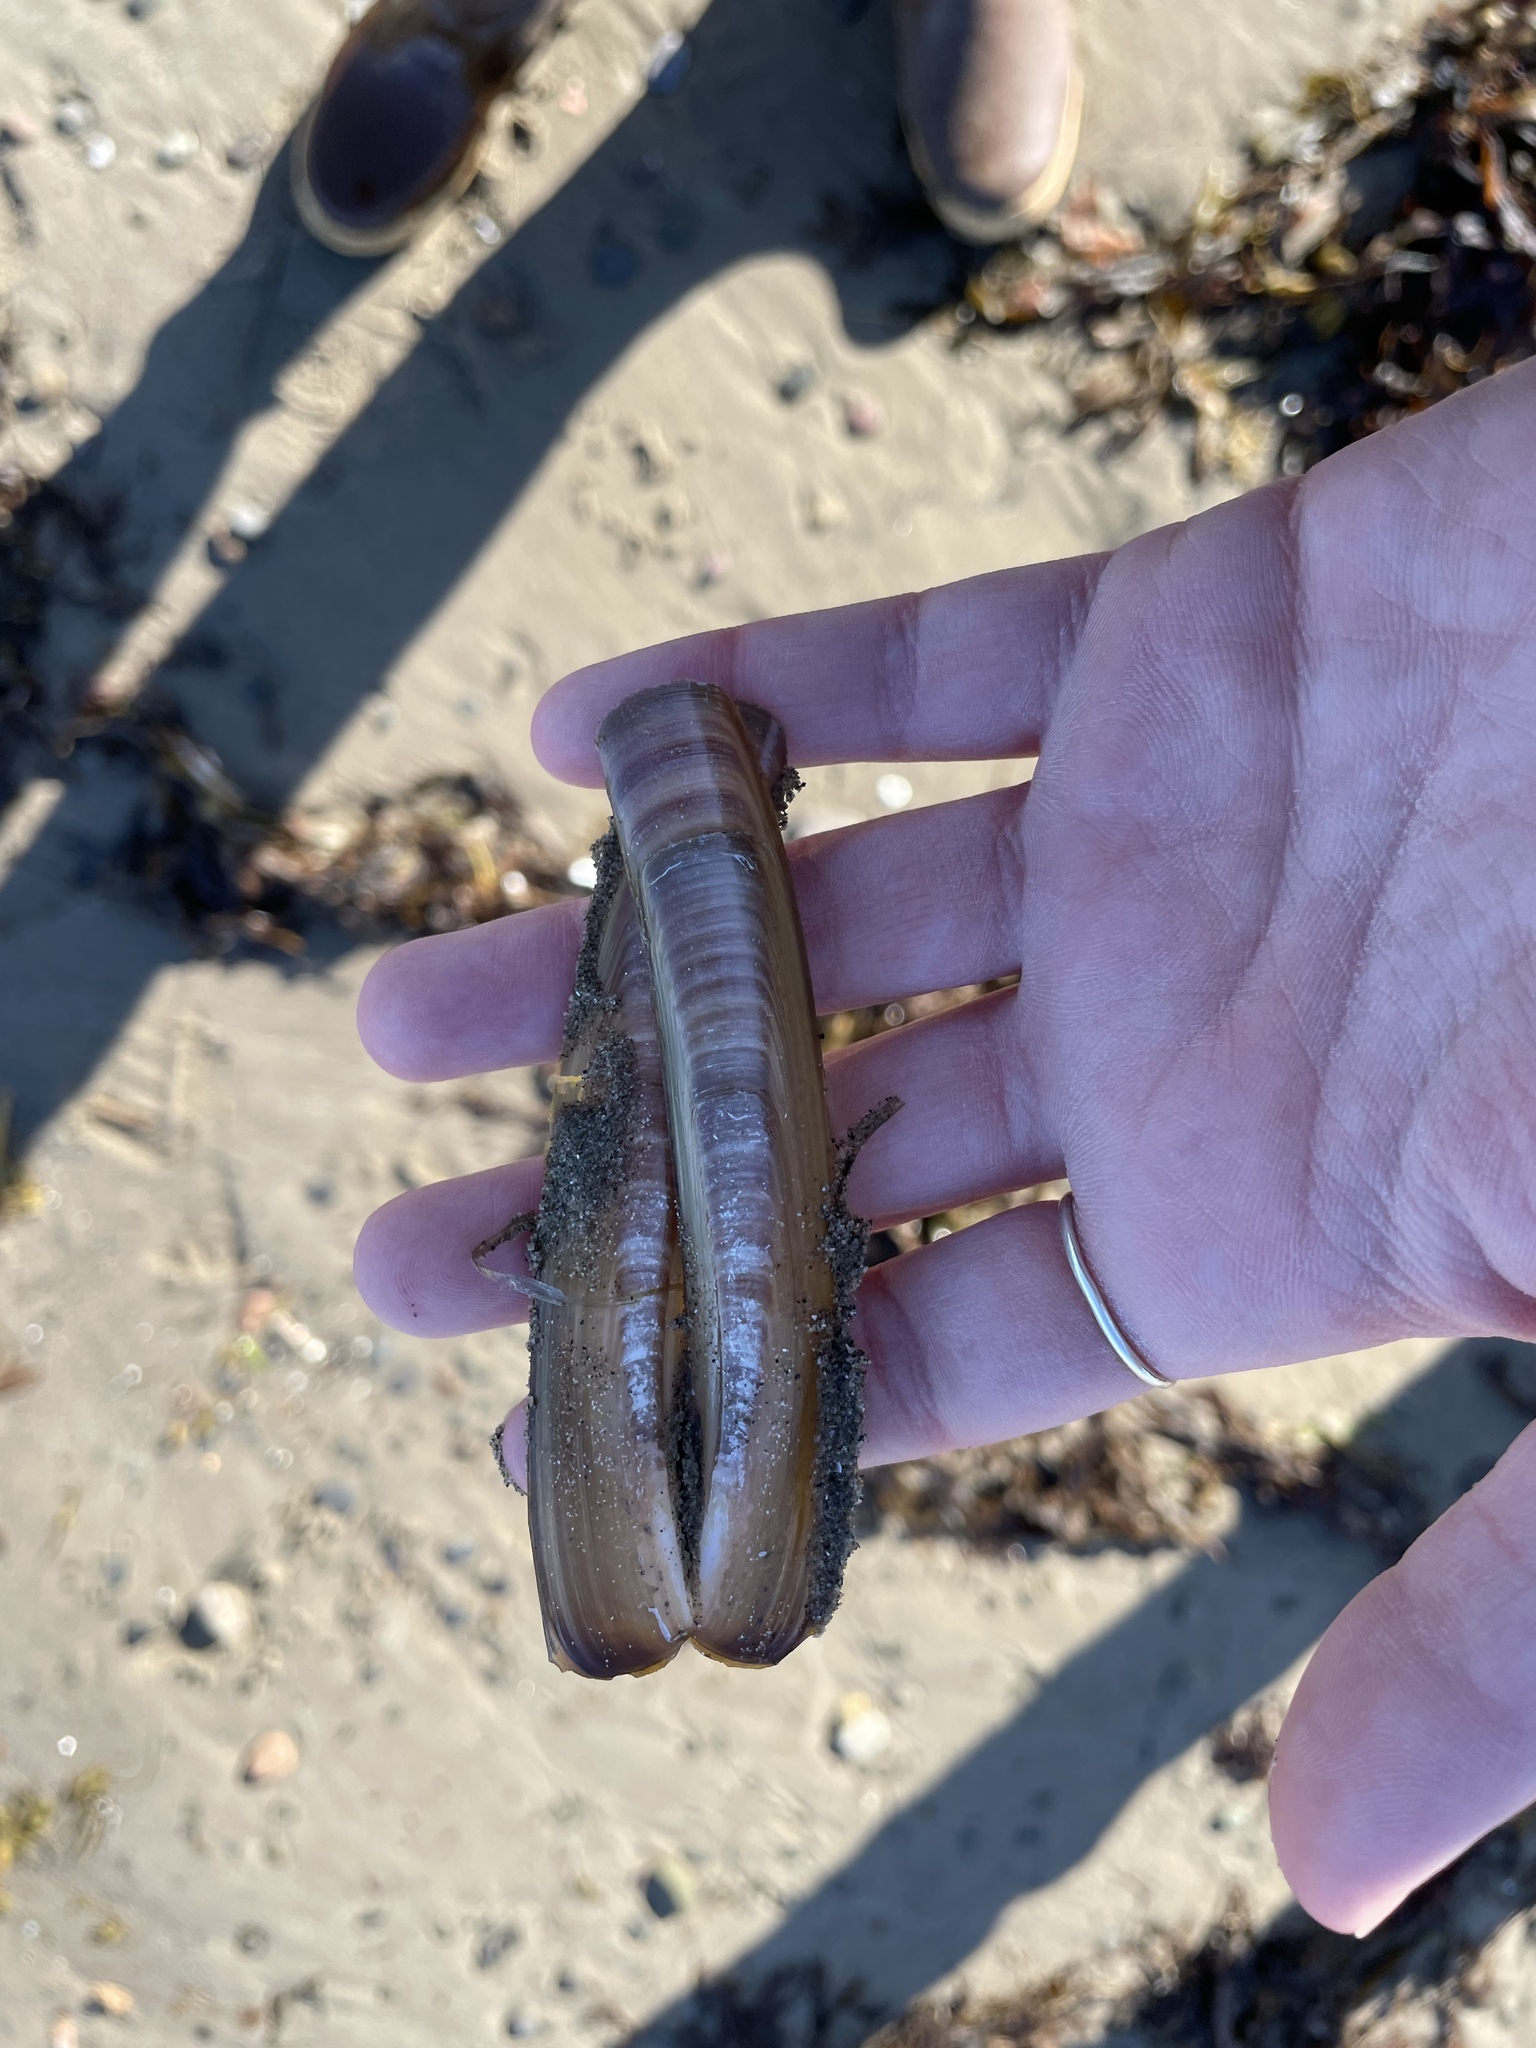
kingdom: Animalia
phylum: Mollusca
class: Bivalvia
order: Adapedonta
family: Pharidae
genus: Ensis
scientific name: Ensis leei
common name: American jack knife clam
